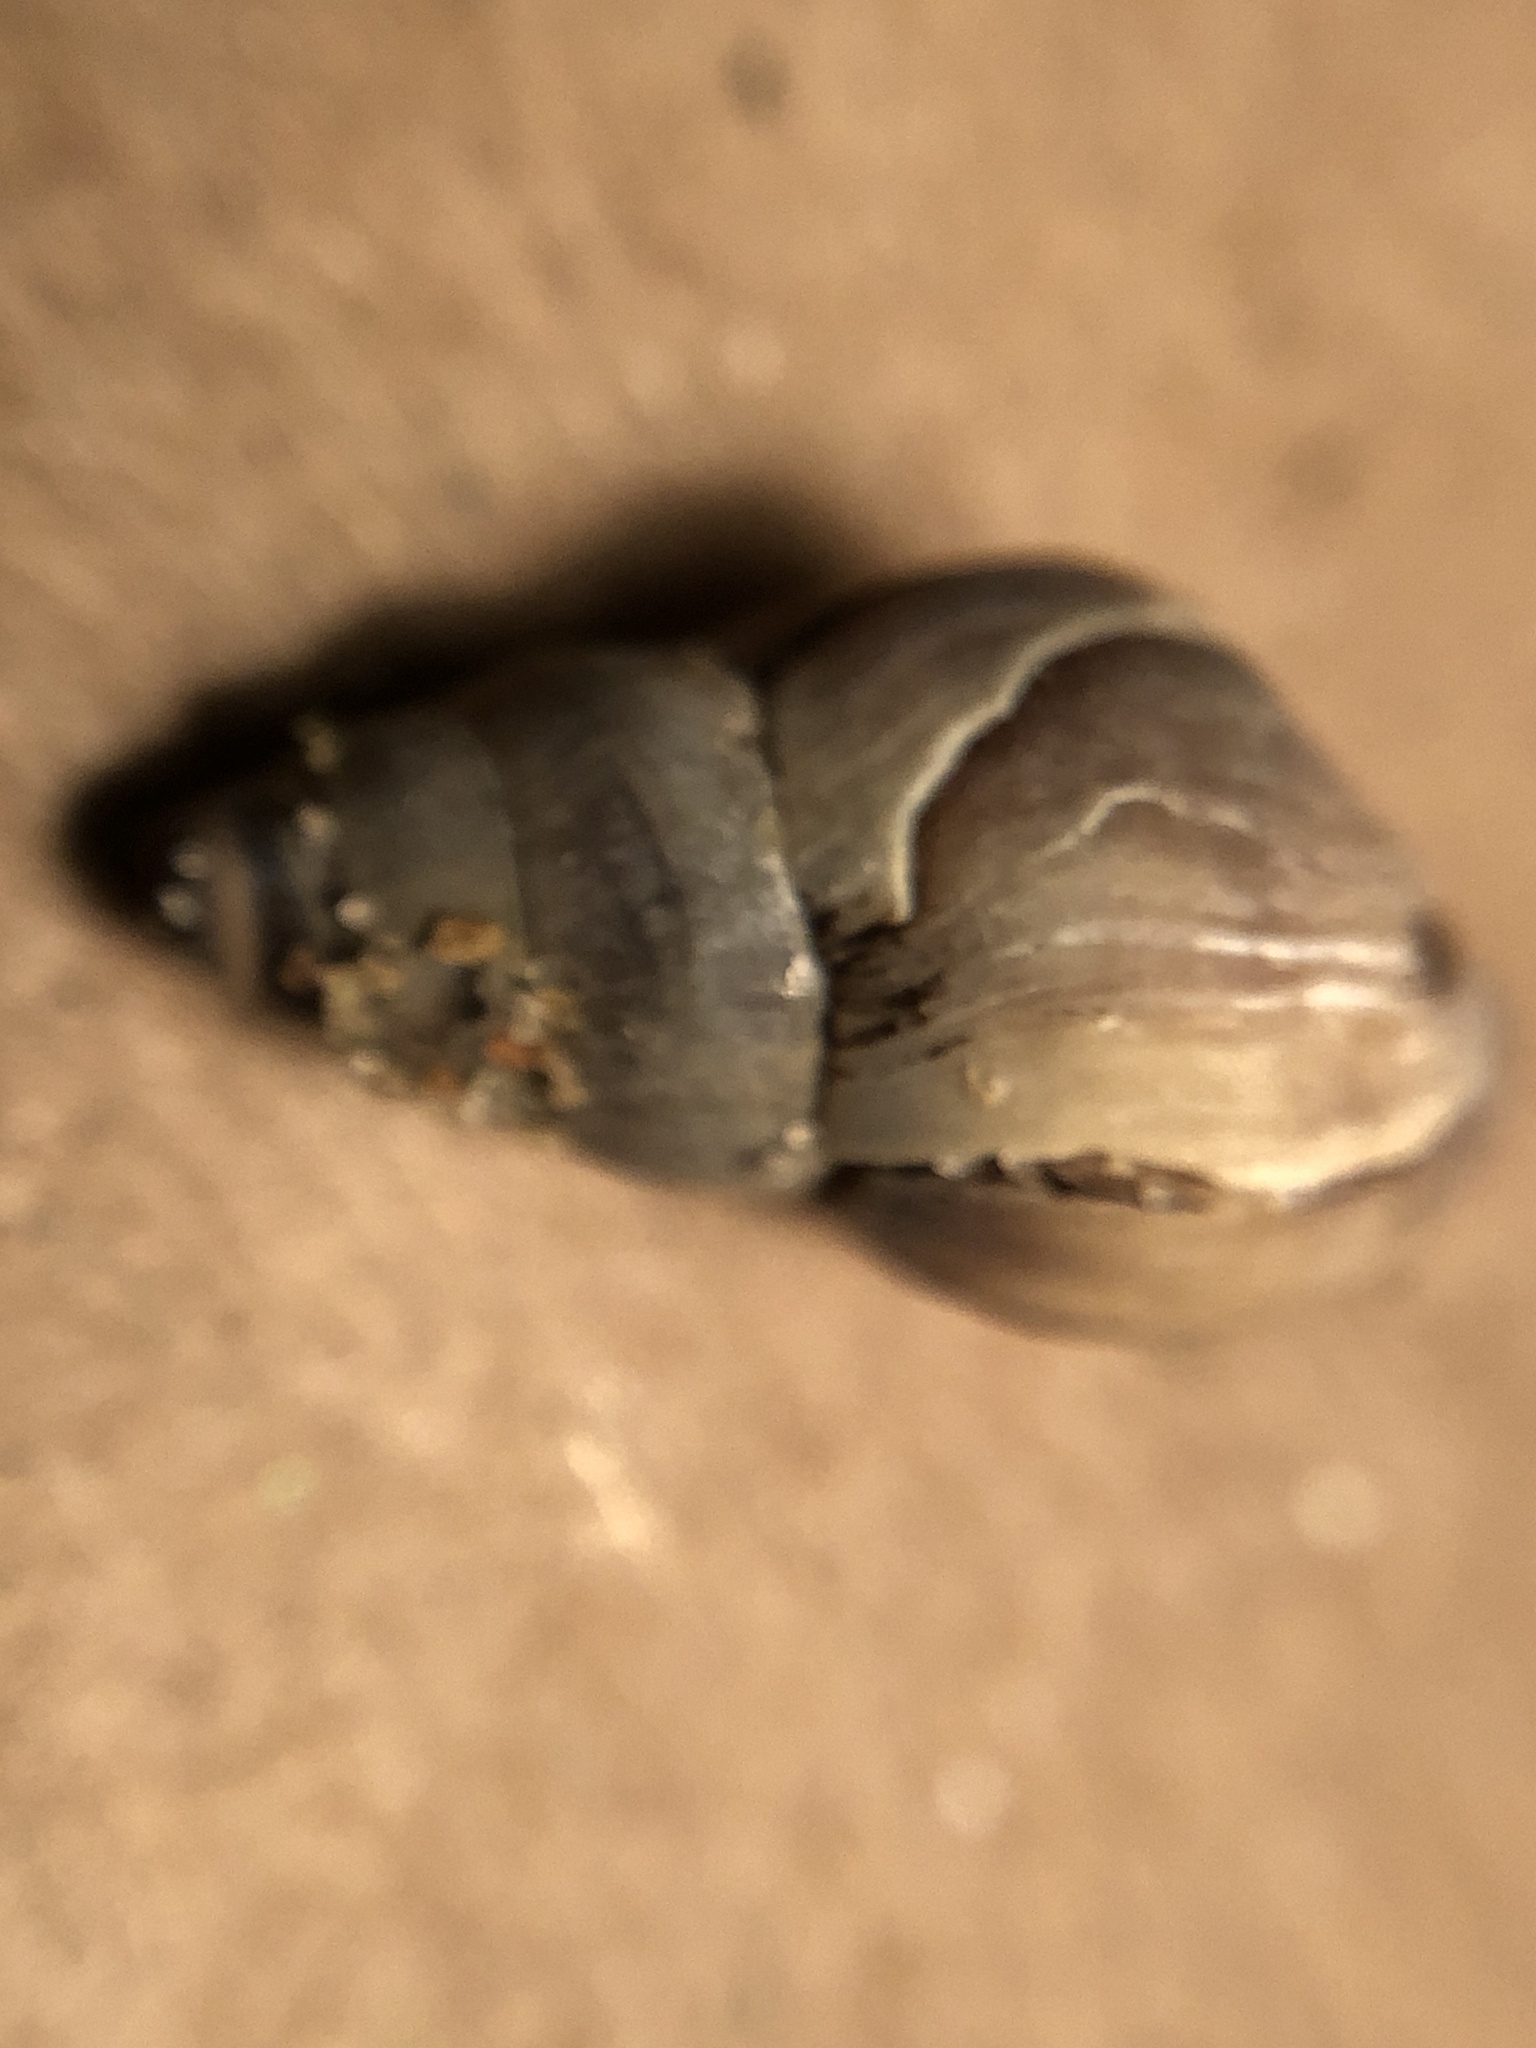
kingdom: Animalia
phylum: Mollusca
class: Gastropoda
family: Pleuroceridae
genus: Elimia
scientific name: Elimia livescens
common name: Liver elimia
